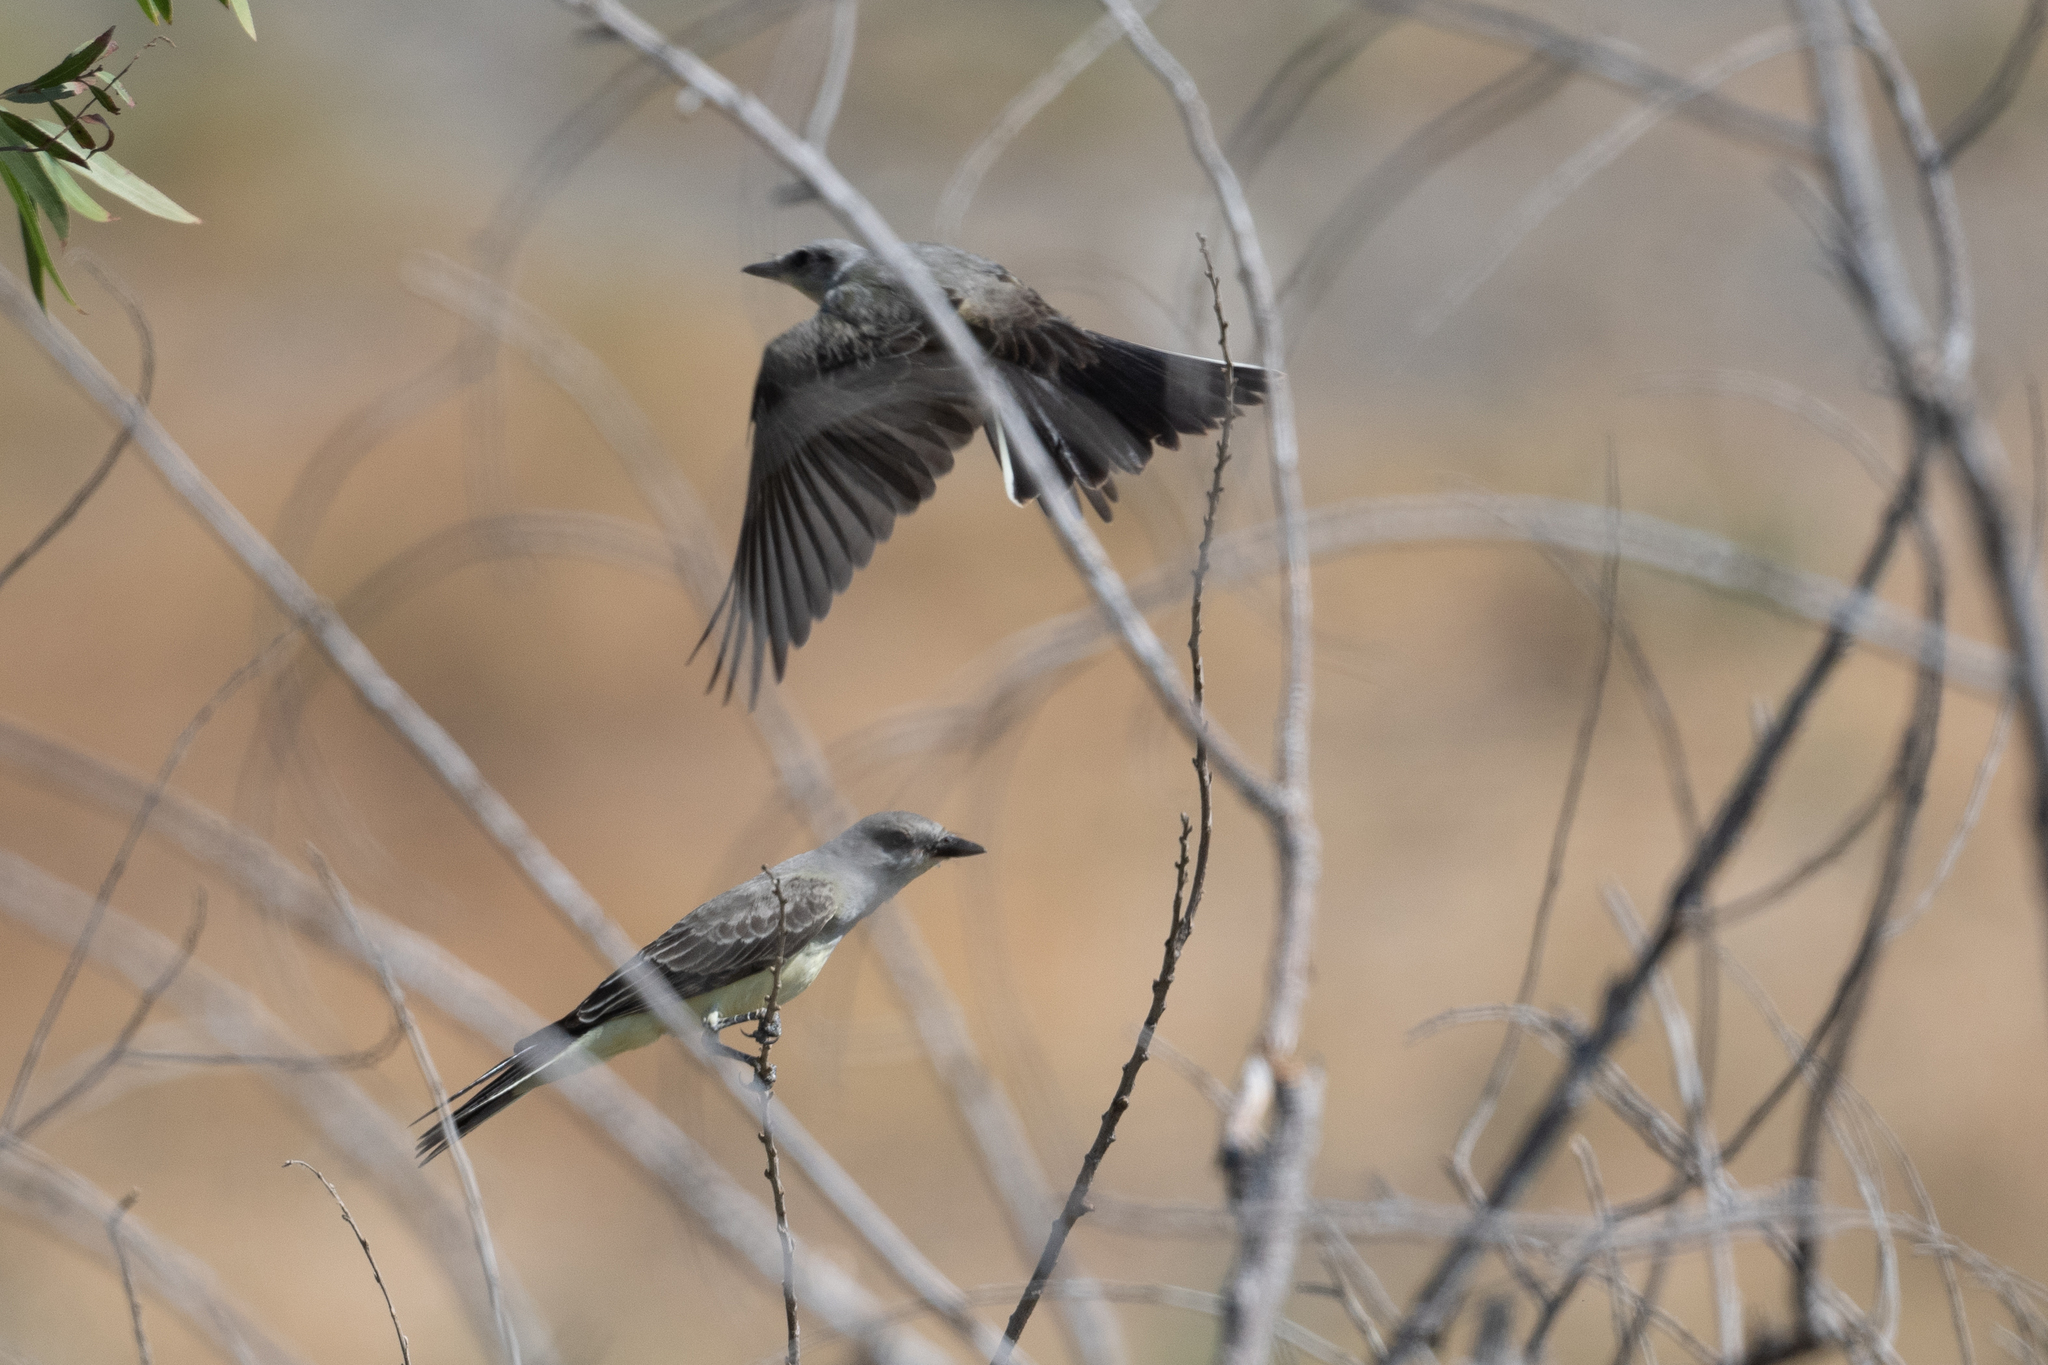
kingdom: Animalia
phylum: Chordata
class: Aves
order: Passeriformes
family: Tyrannidae
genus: Tyrannus
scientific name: Tyrannus verticalis
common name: Western kingbird
